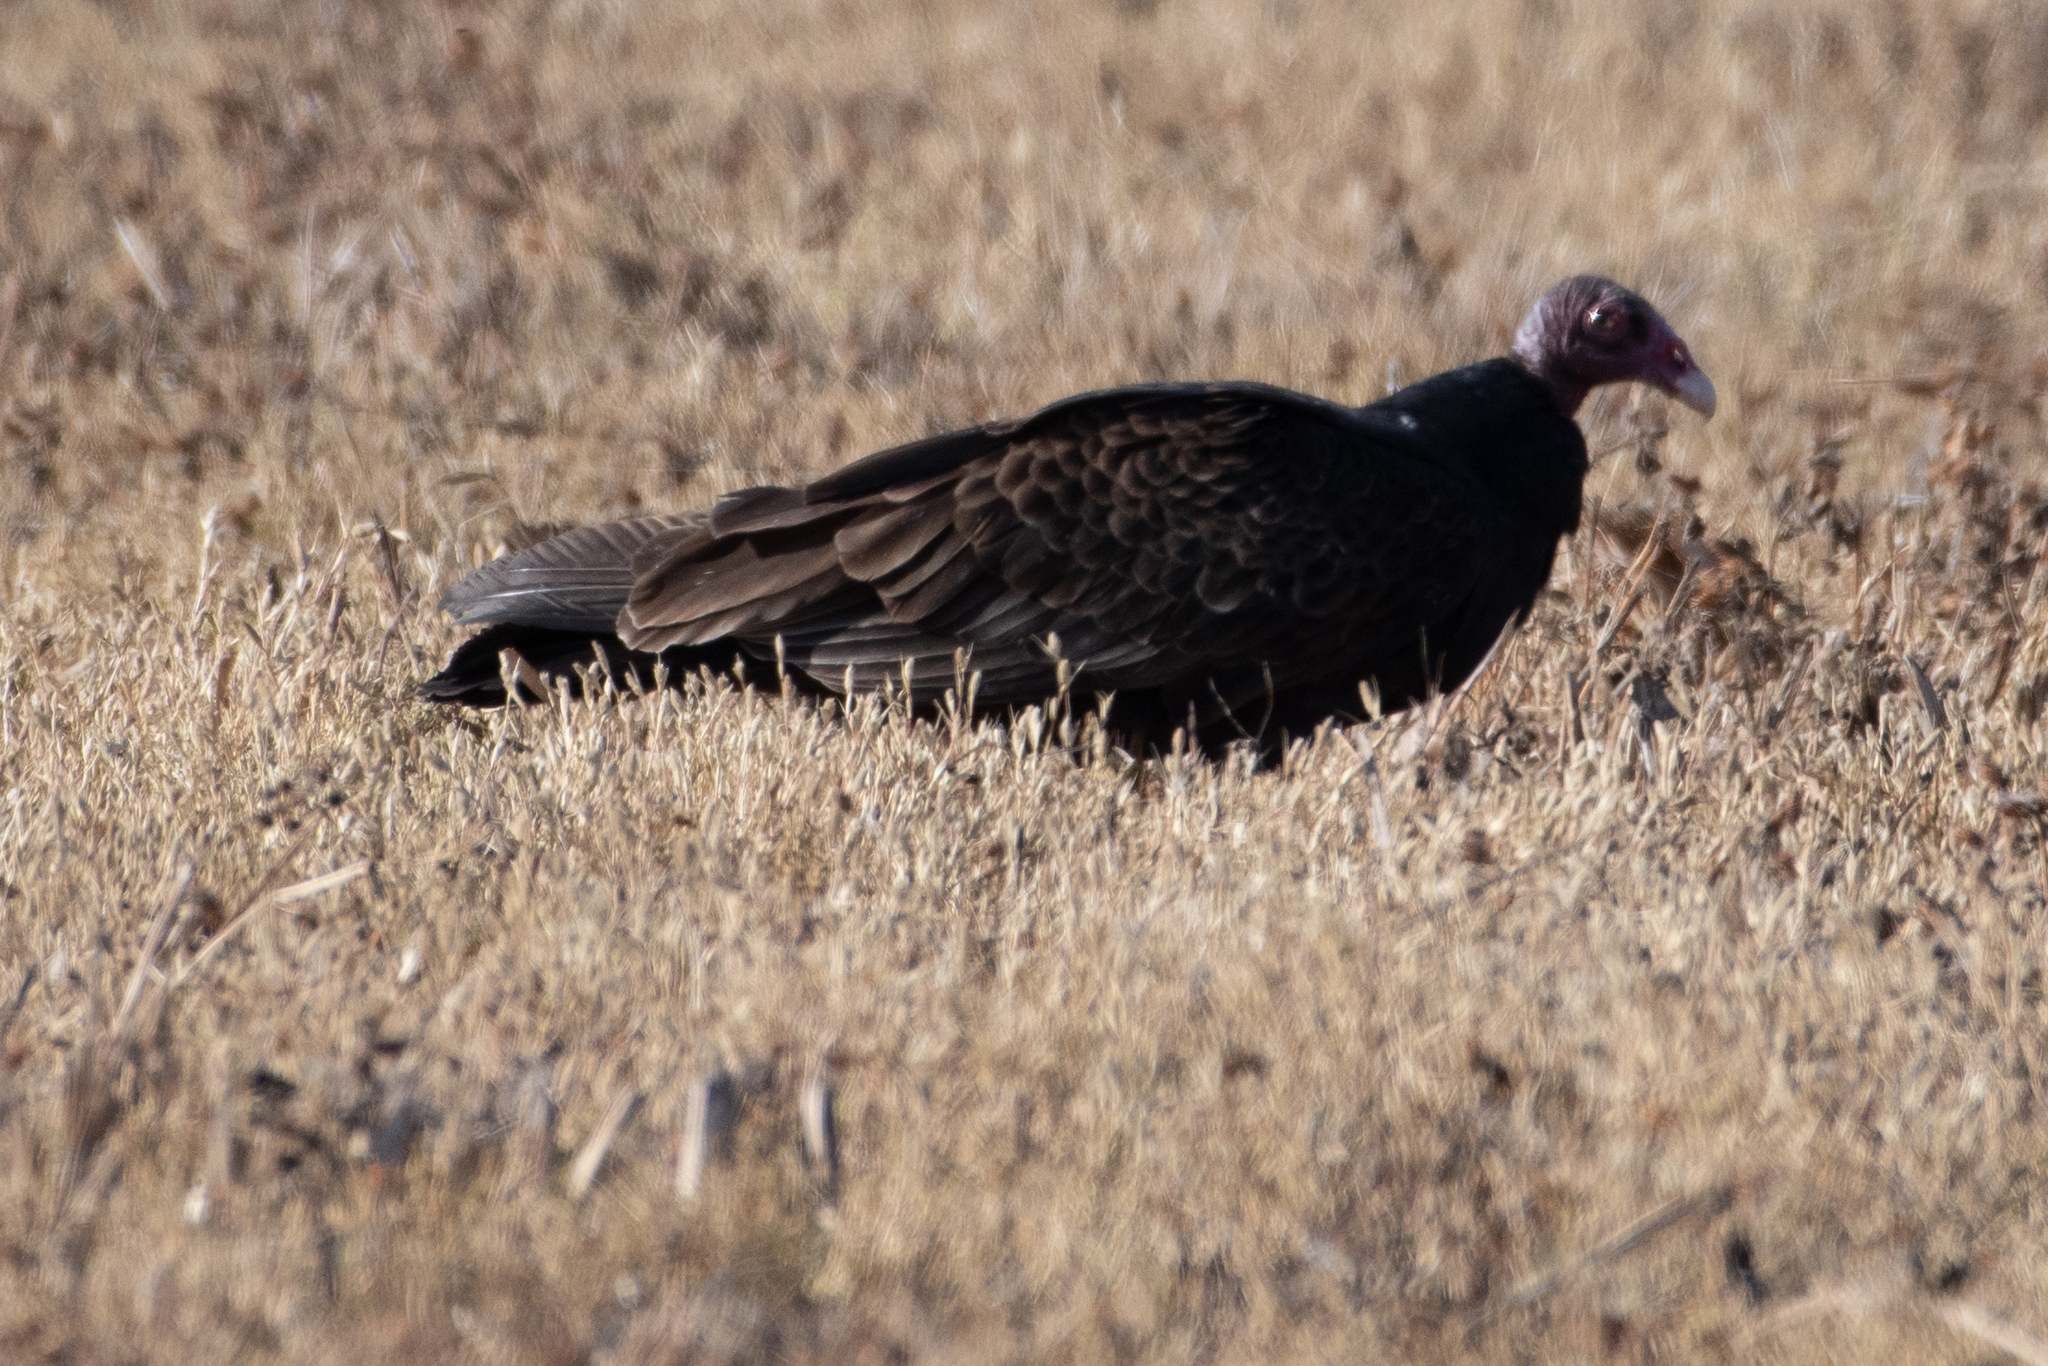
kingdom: Animalia
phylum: Chordata
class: Aves
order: Accipitriformes
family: Cathartidae
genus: Cathartes
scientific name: Cathartes aura
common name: Turkey vulture
